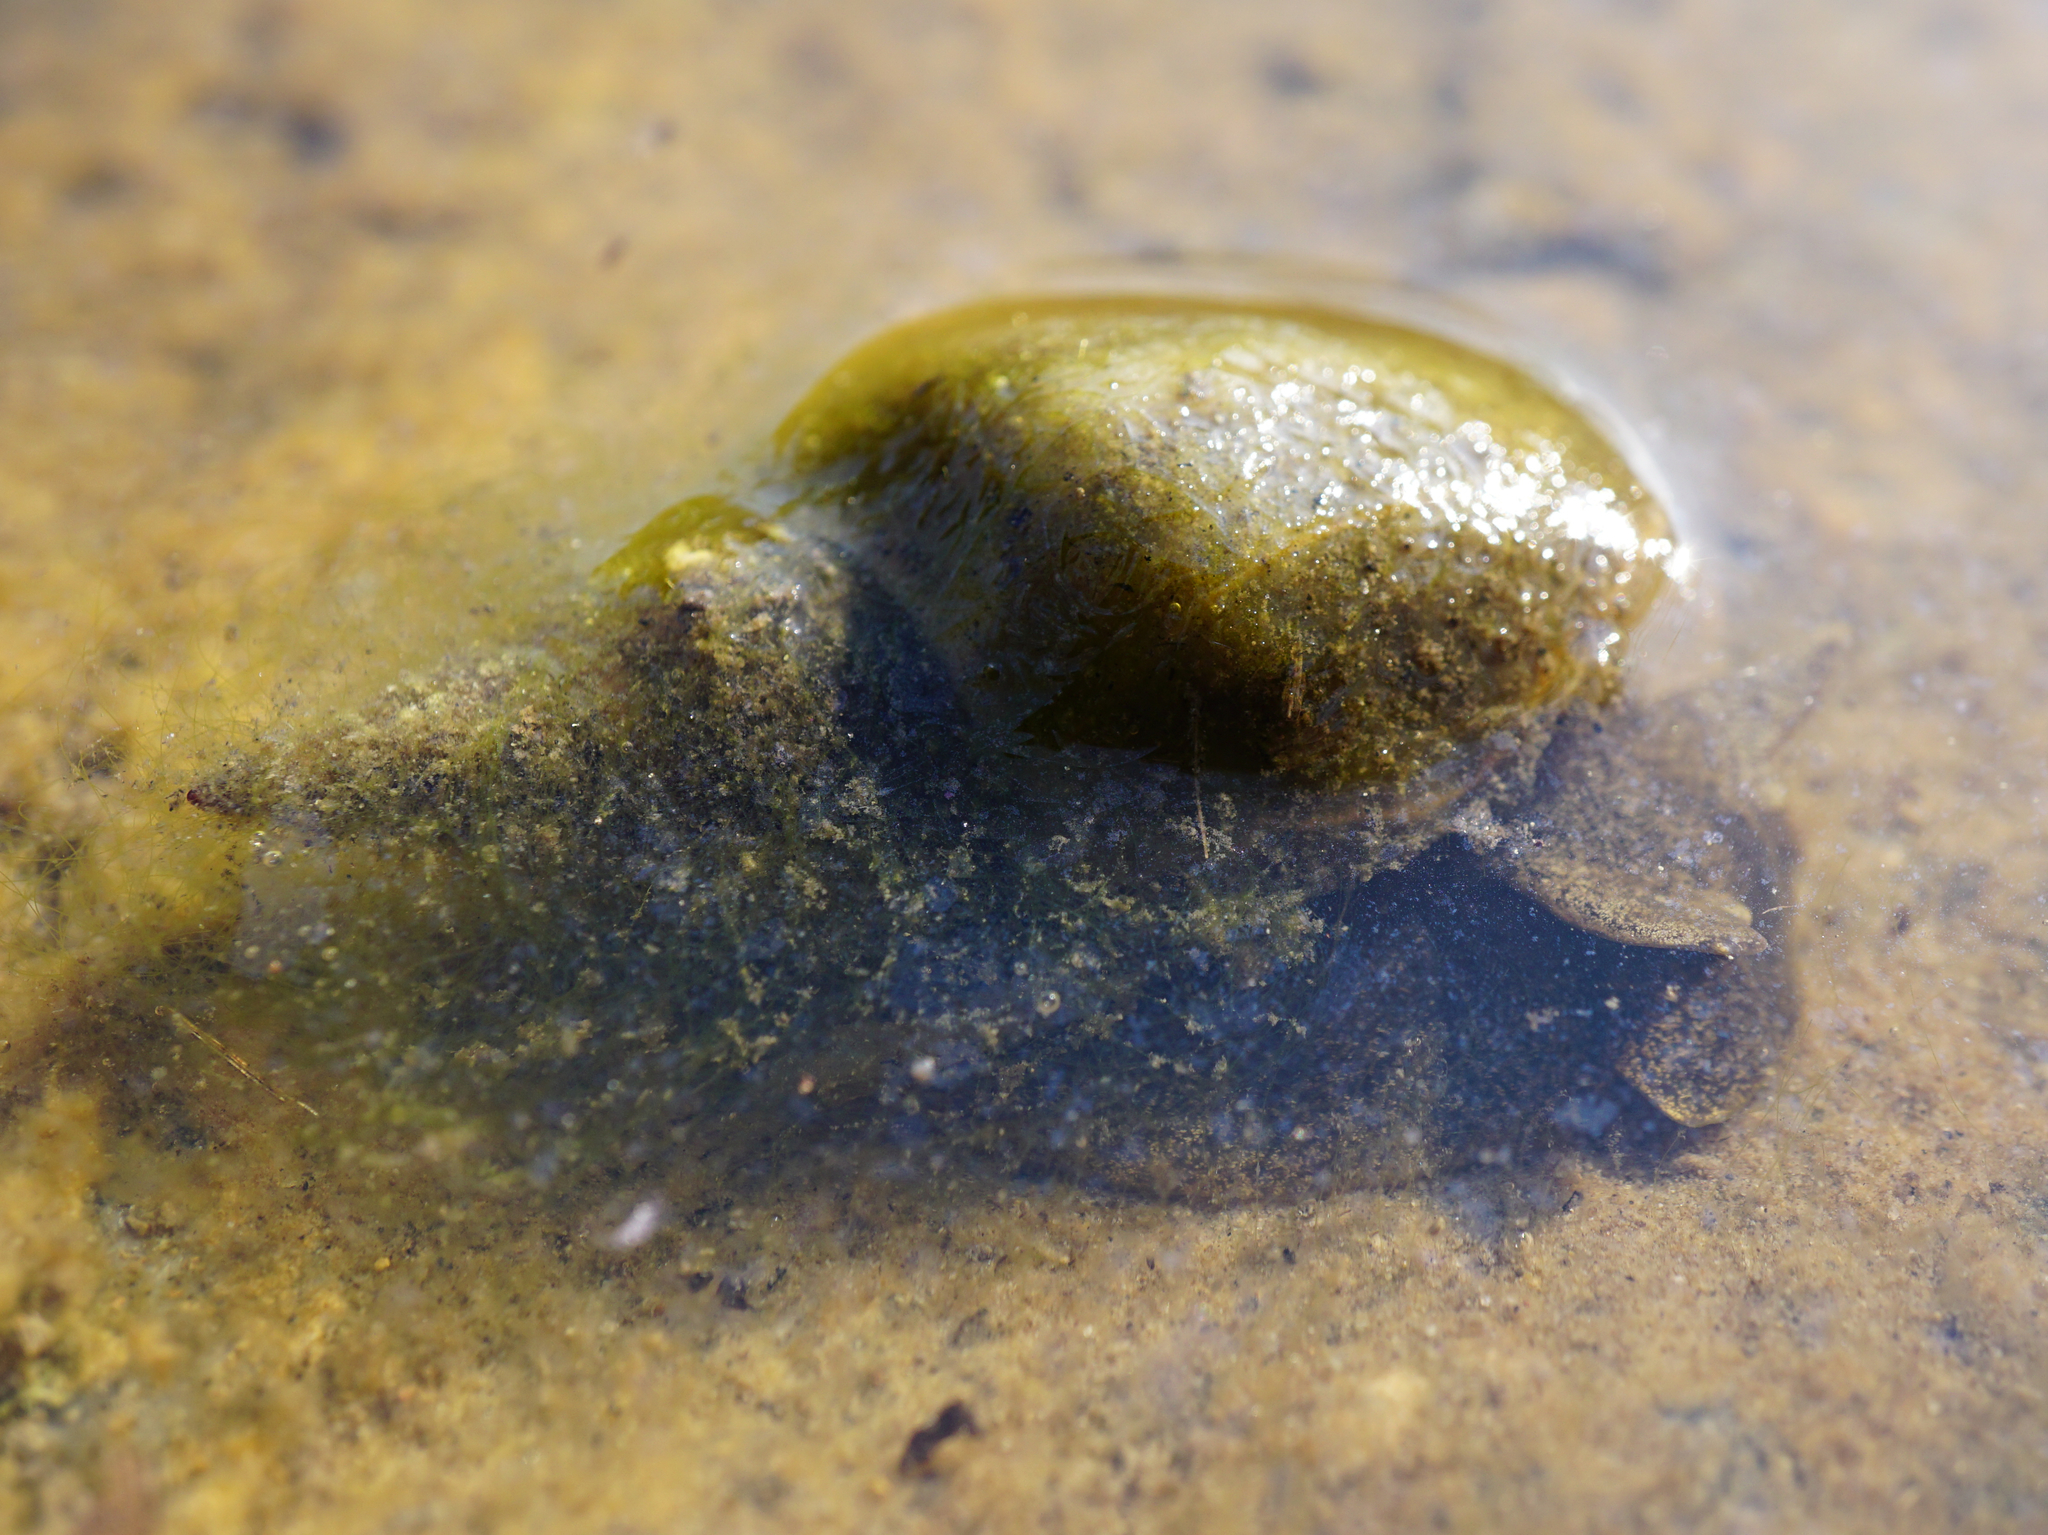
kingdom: Animalia
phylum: Mollusca
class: Gastropoda
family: Lymnaeidae
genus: Lymnaea
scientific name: Lymnaea stagnalis
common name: Great pond snail
